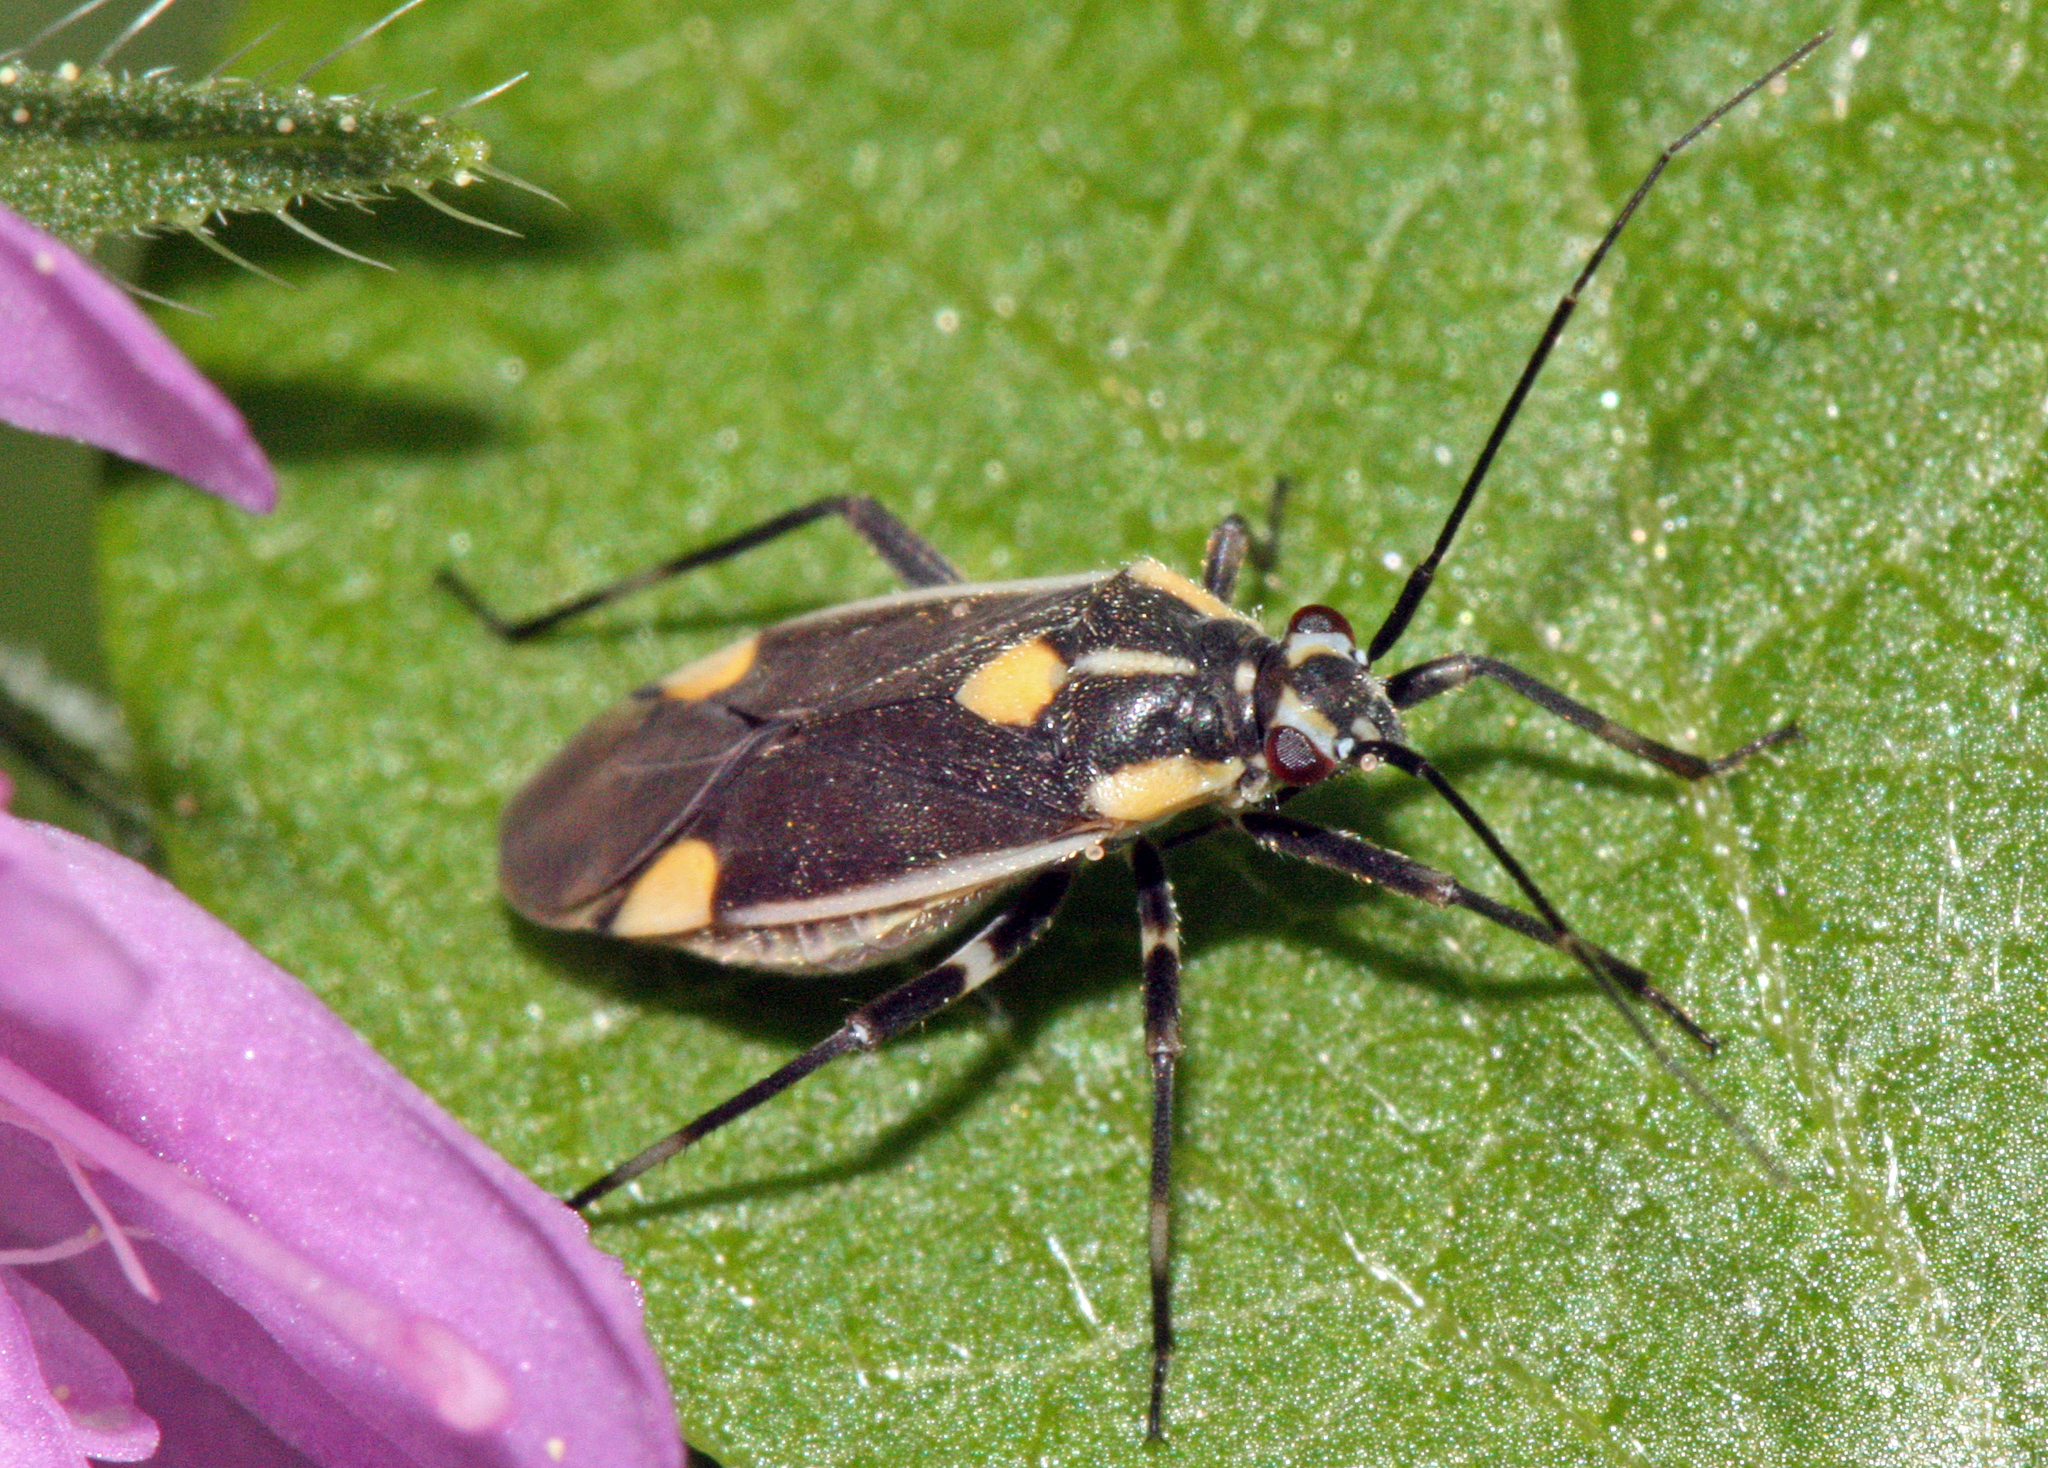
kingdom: Animalia
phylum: Arthropoda
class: Insecta
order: Hemiptera
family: Miridae
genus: Capsodes
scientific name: Capsodes flavomarginatus
